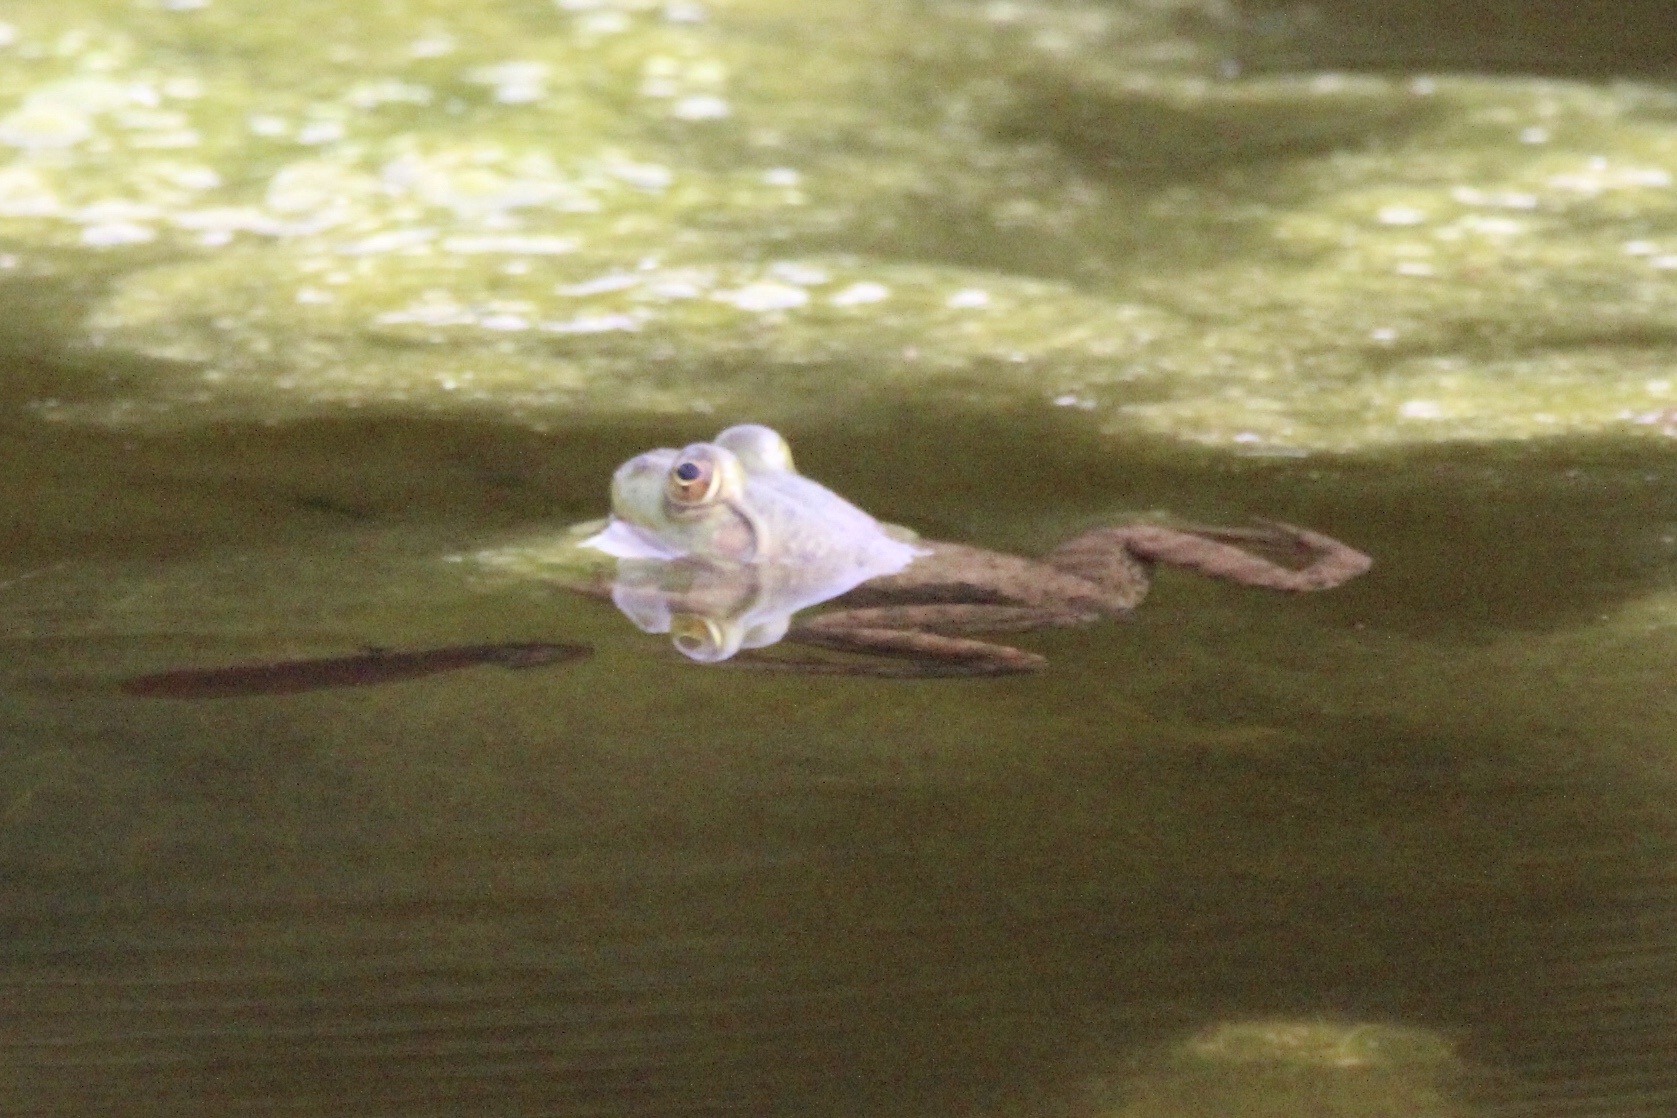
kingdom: Animalia
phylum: Chordata
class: Amphibia
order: Anura
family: Ranidae
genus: Lithobates
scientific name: Lithobates catesbeianus
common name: American bullfrog
